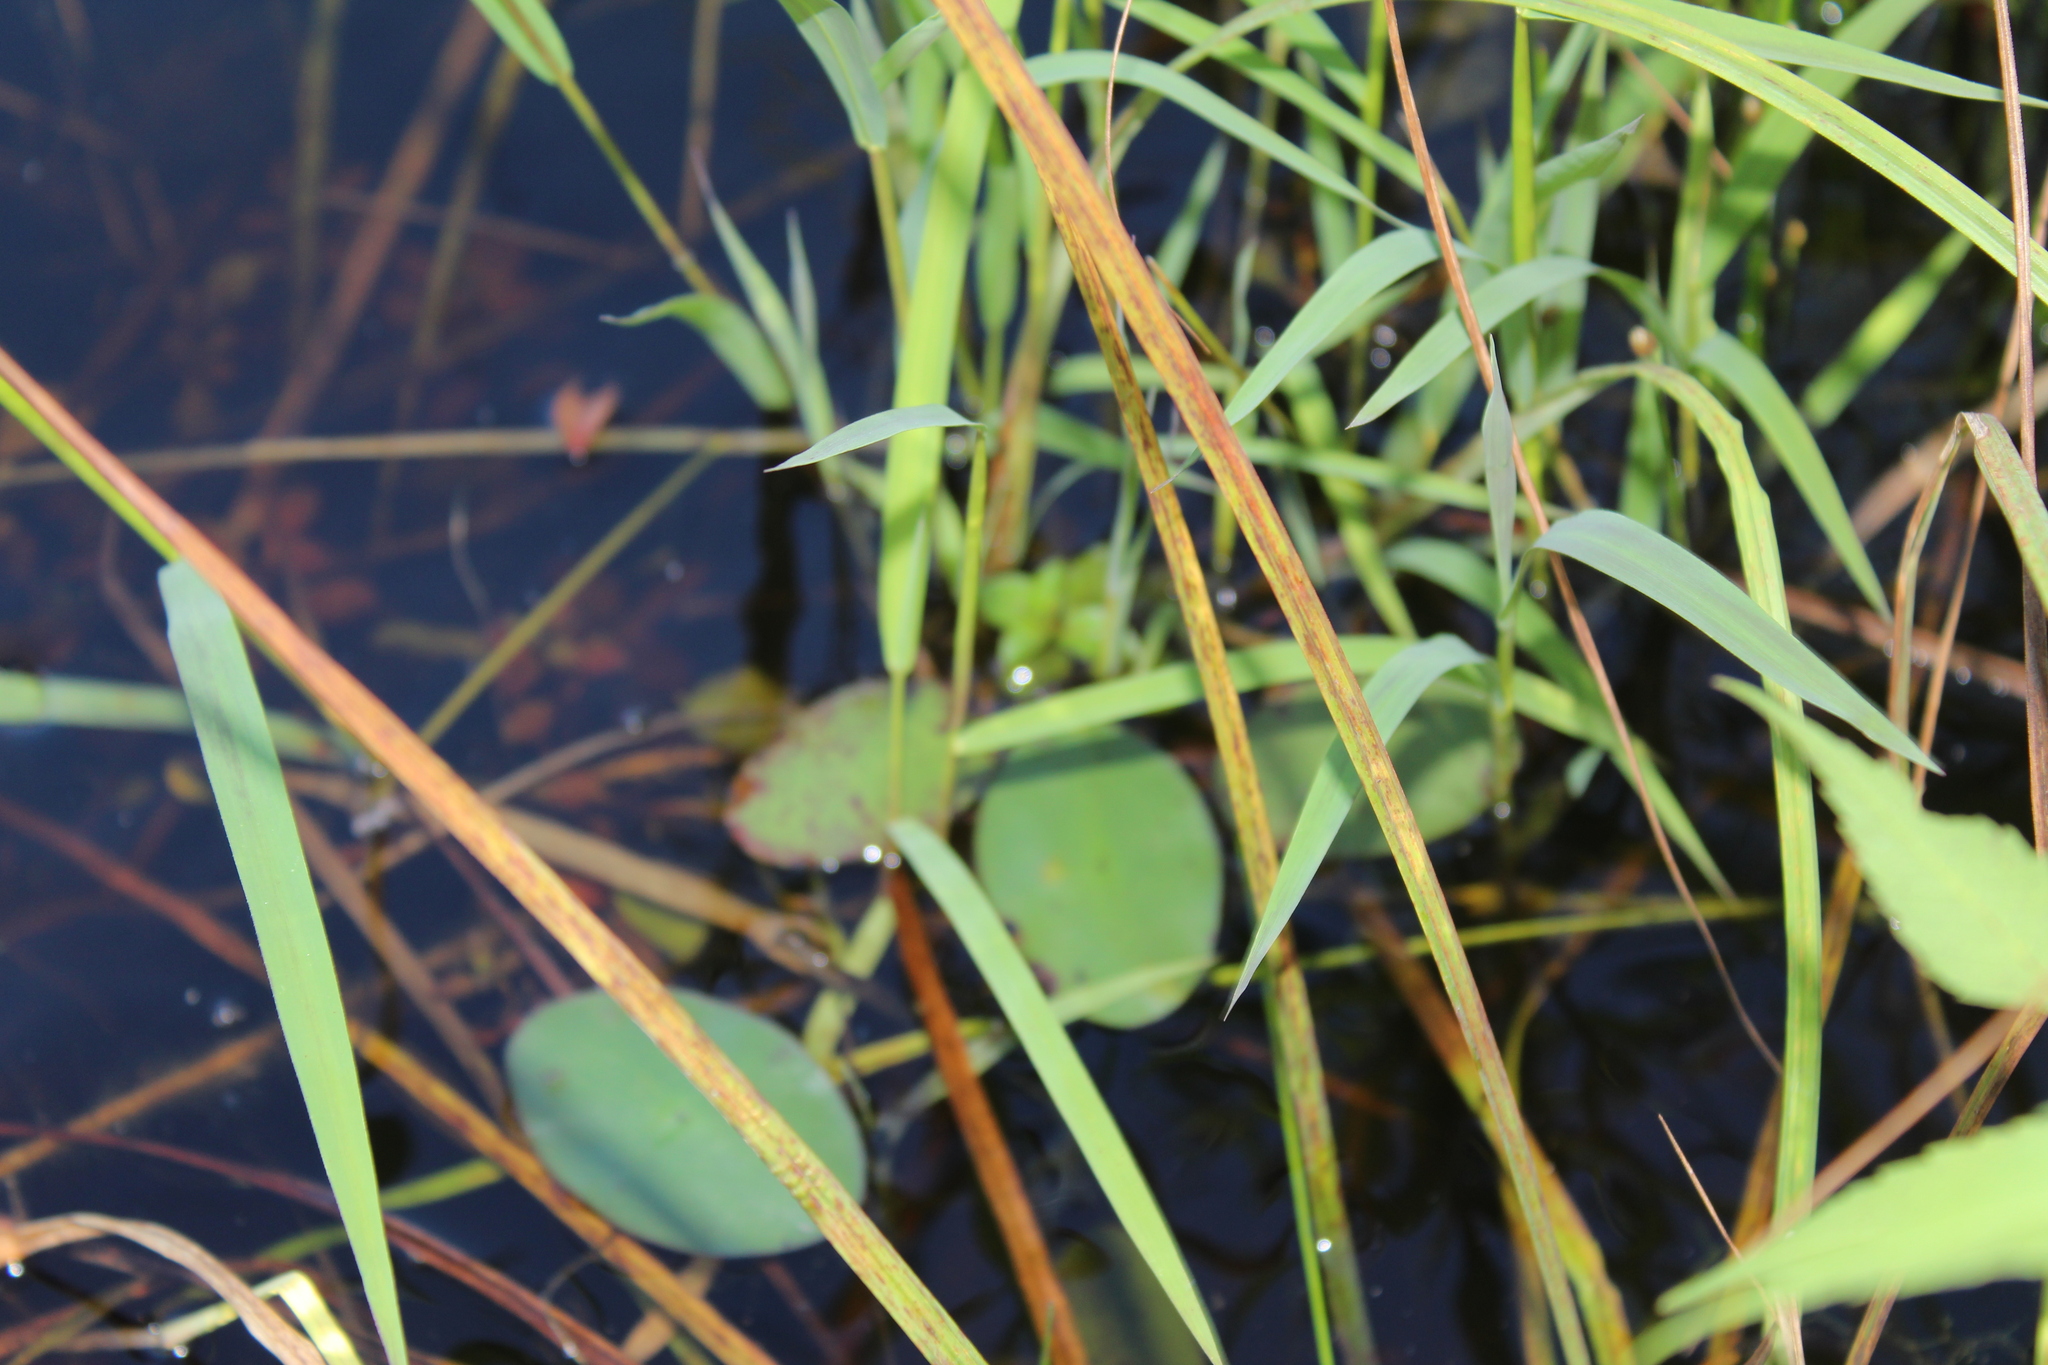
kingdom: Plantae
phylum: Tracheophyta
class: Liliopsida
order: Poales
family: Poaceae
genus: Leersia
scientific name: Leersia oryzoides
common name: Cut-grass
